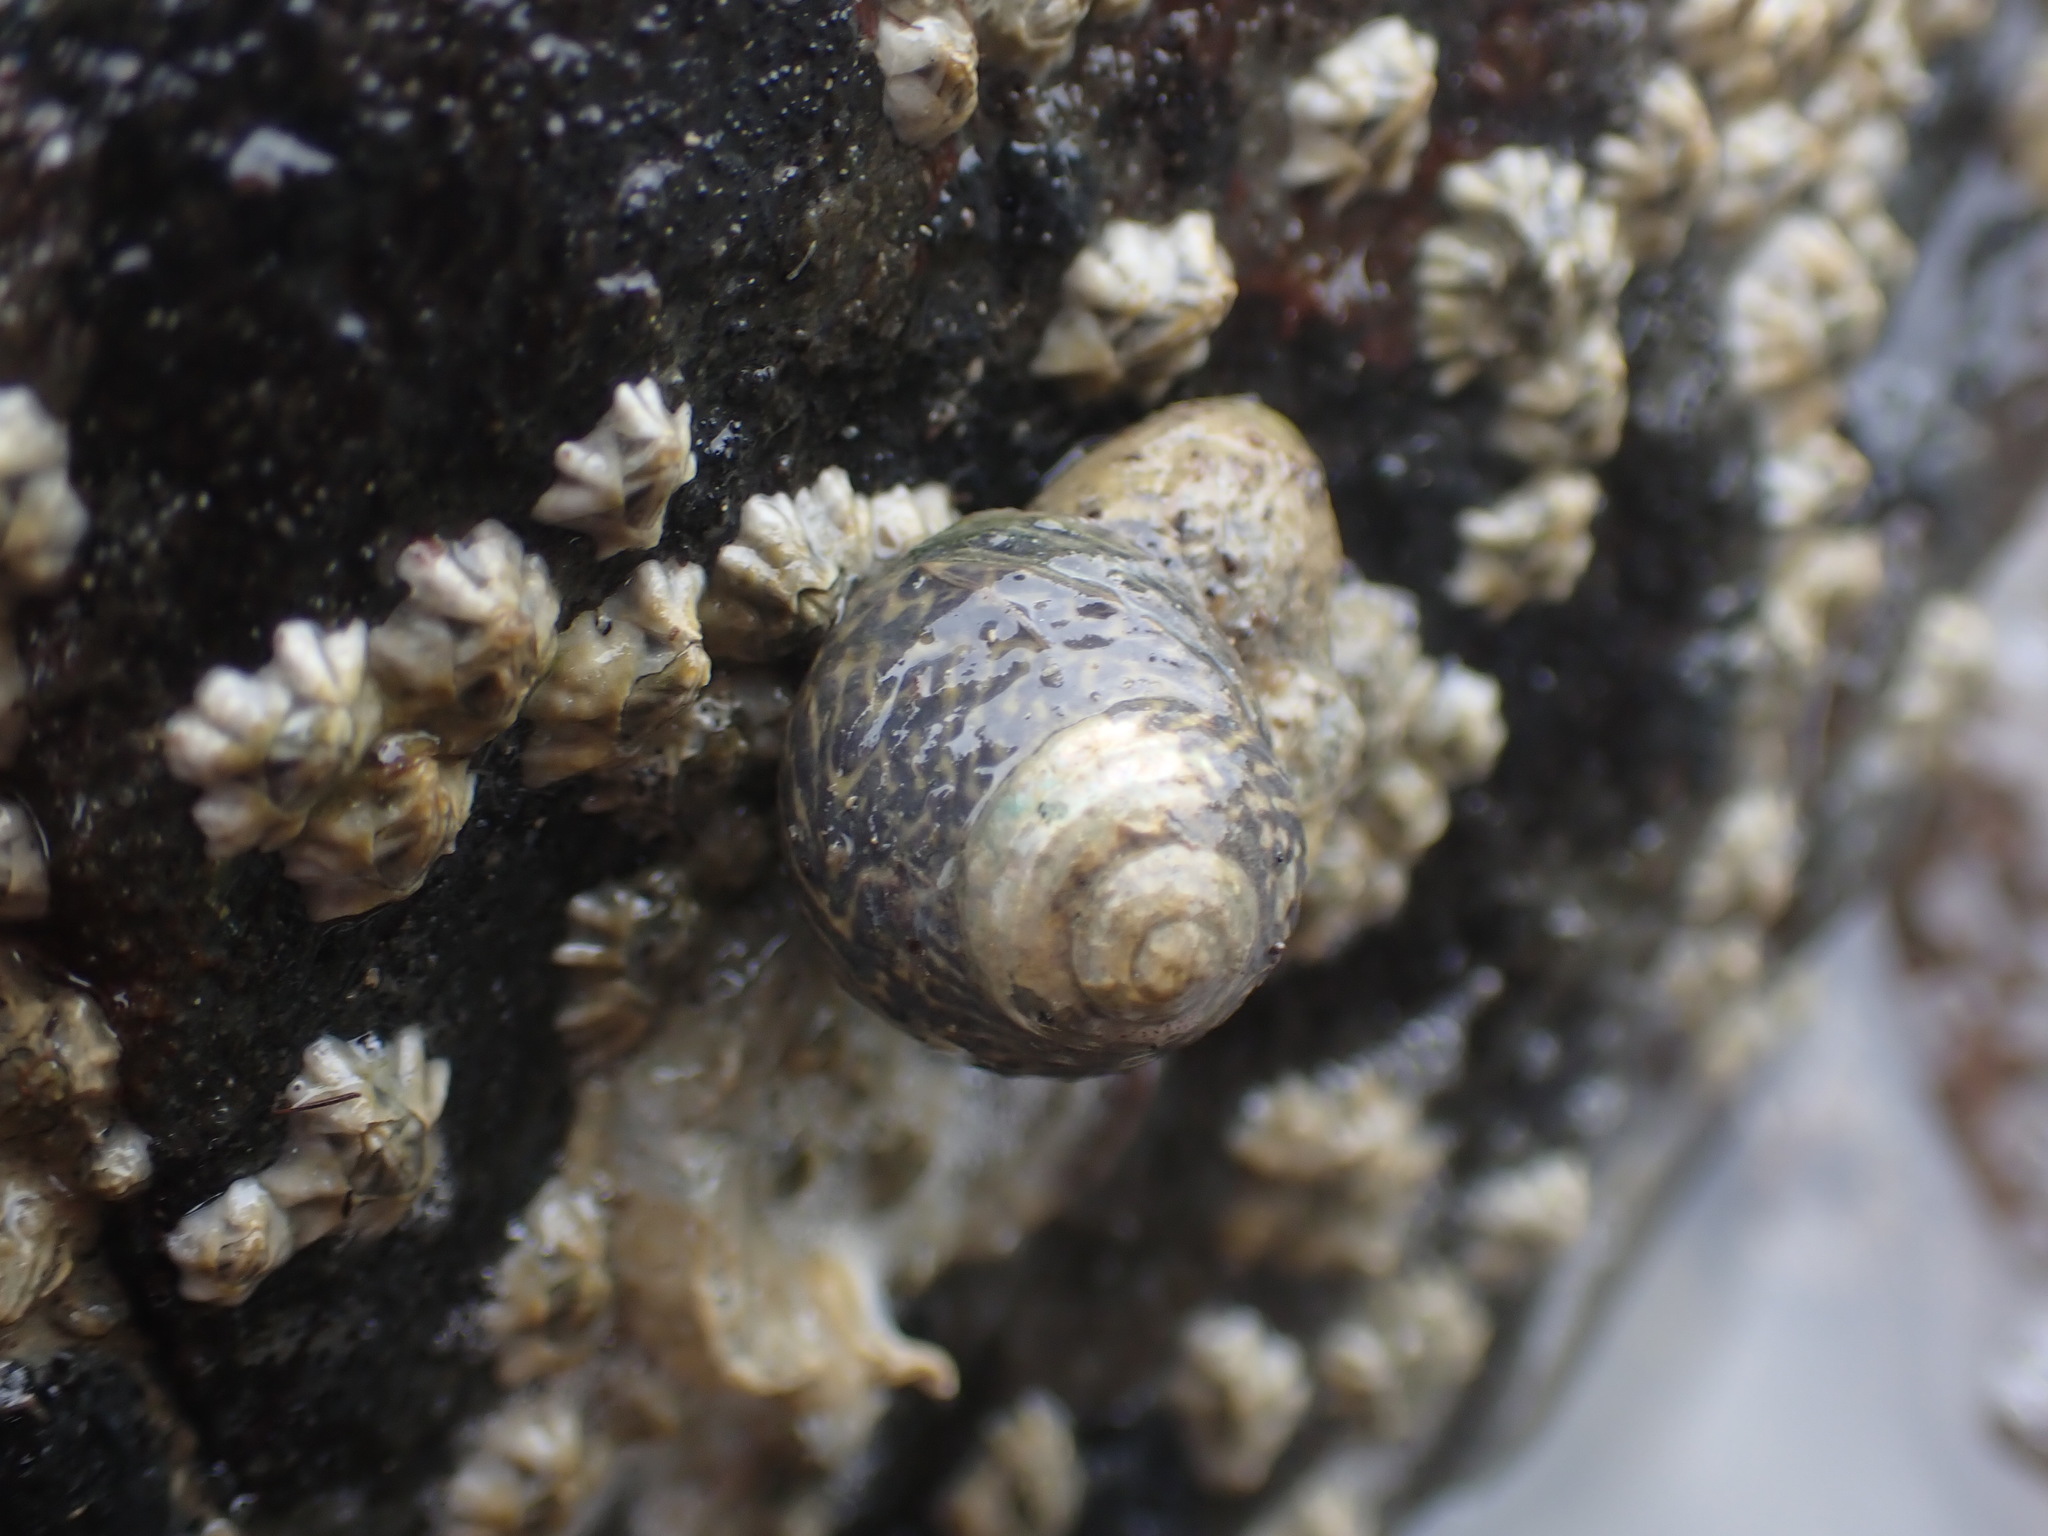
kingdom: Animalia
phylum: Mollusca
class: Gastropoda
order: Trochida
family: Trochidae
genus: Diloma
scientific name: Diloma subrostratum
